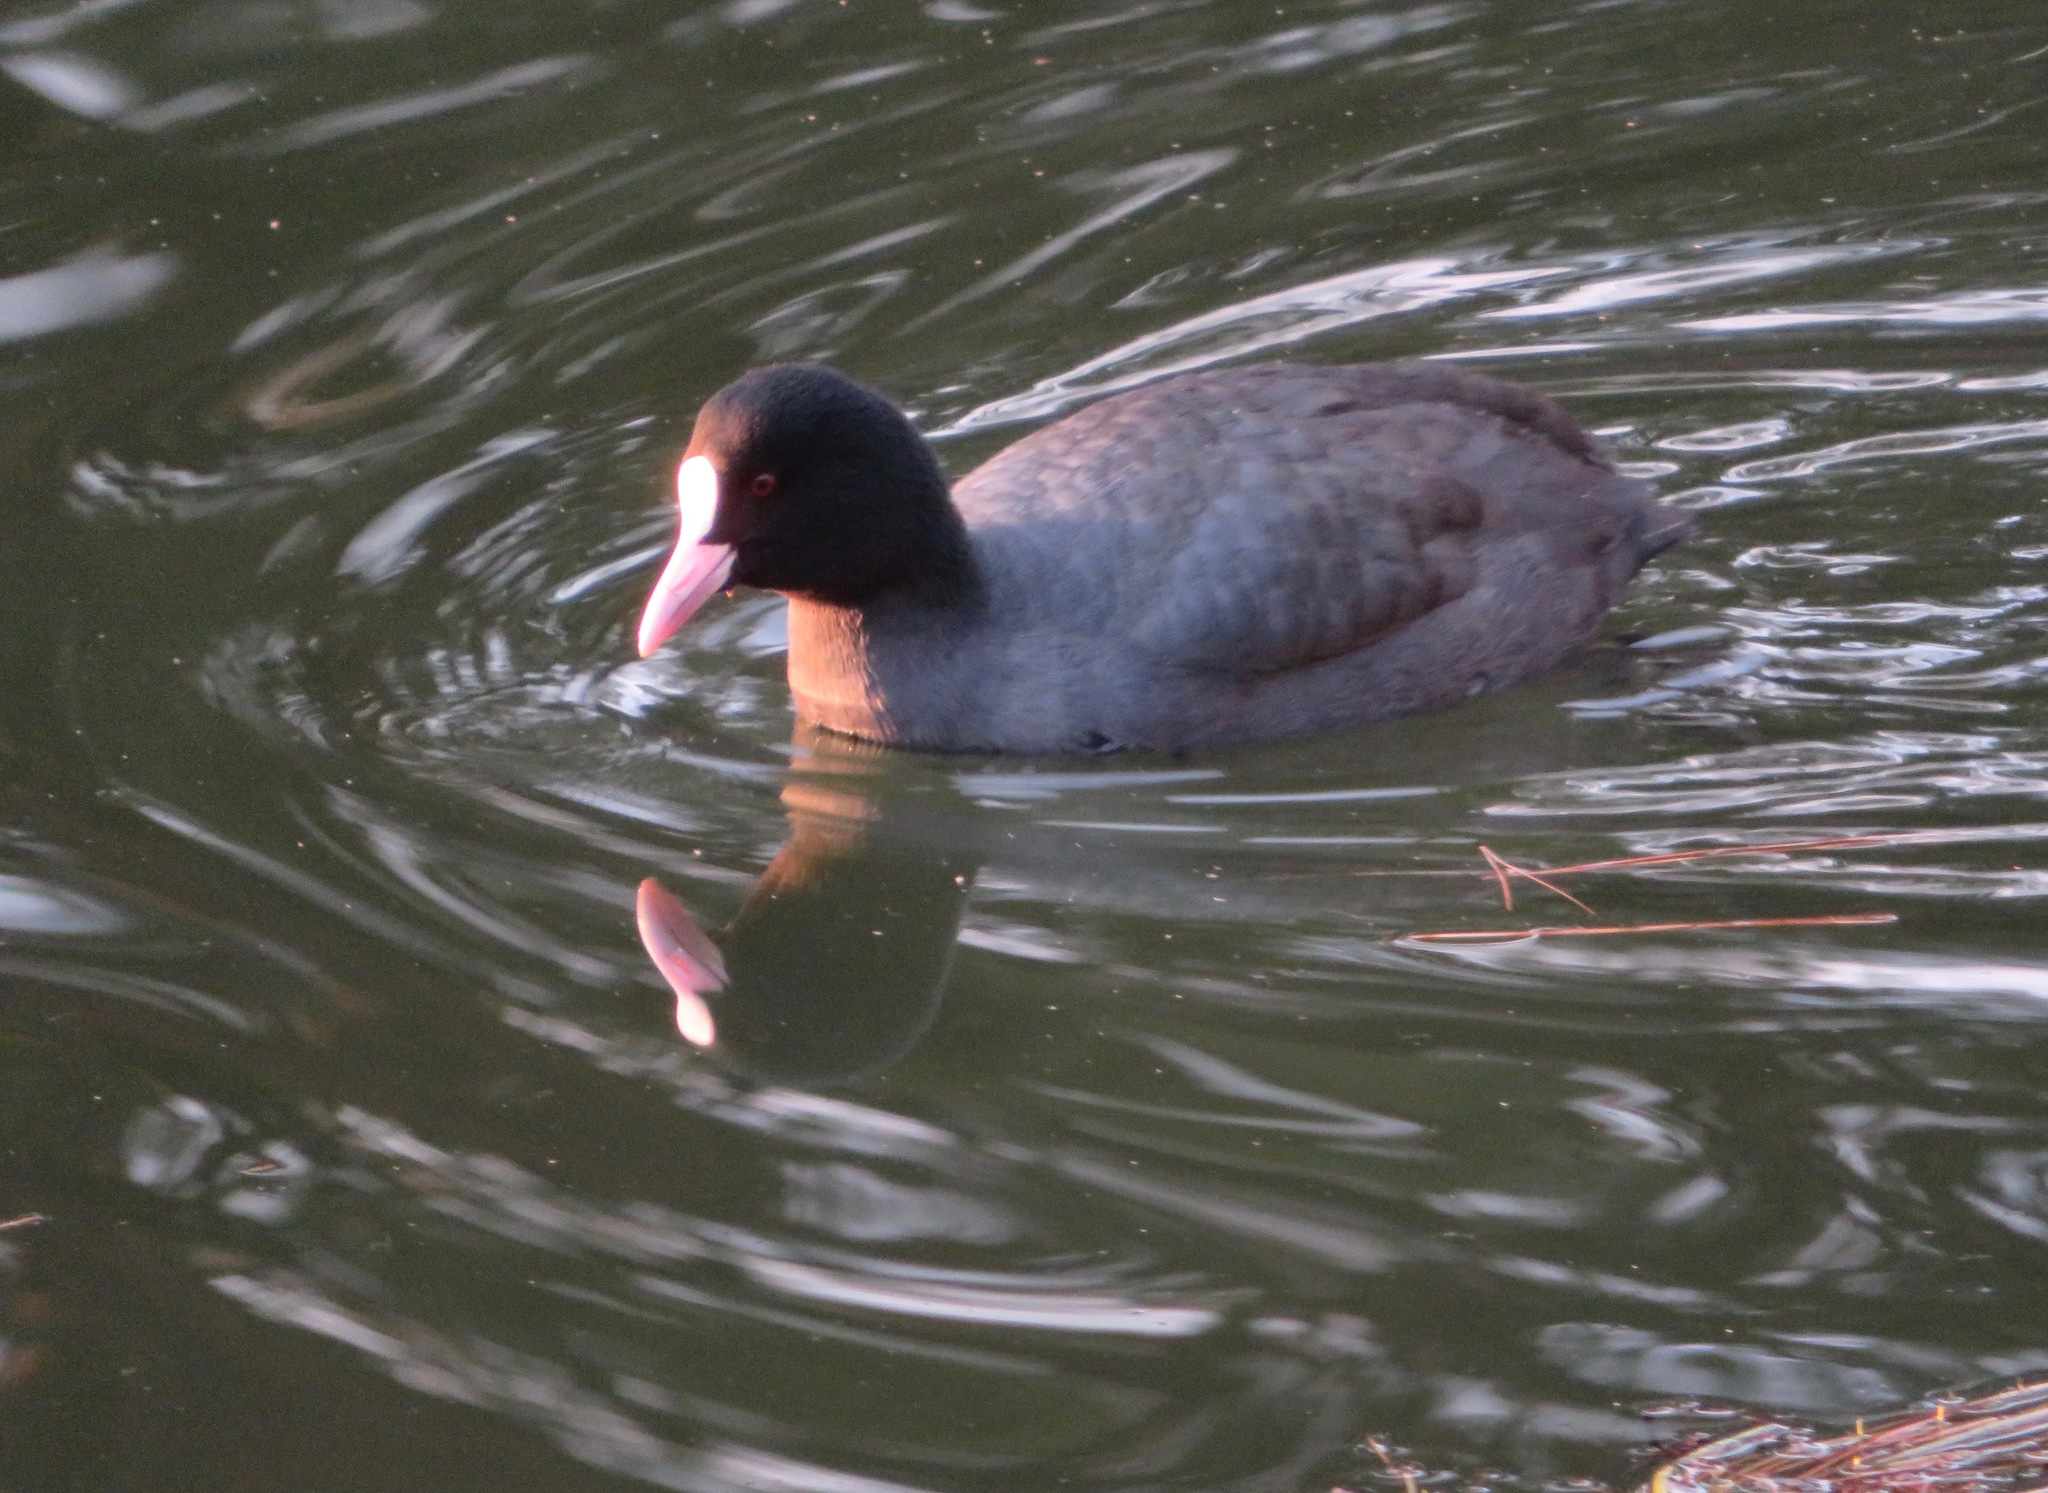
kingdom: Animalia
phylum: Chordata
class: Aves
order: Gruiformes
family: Rallidae
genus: Fulica
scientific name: Fulica atra
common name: Eurasian coot
